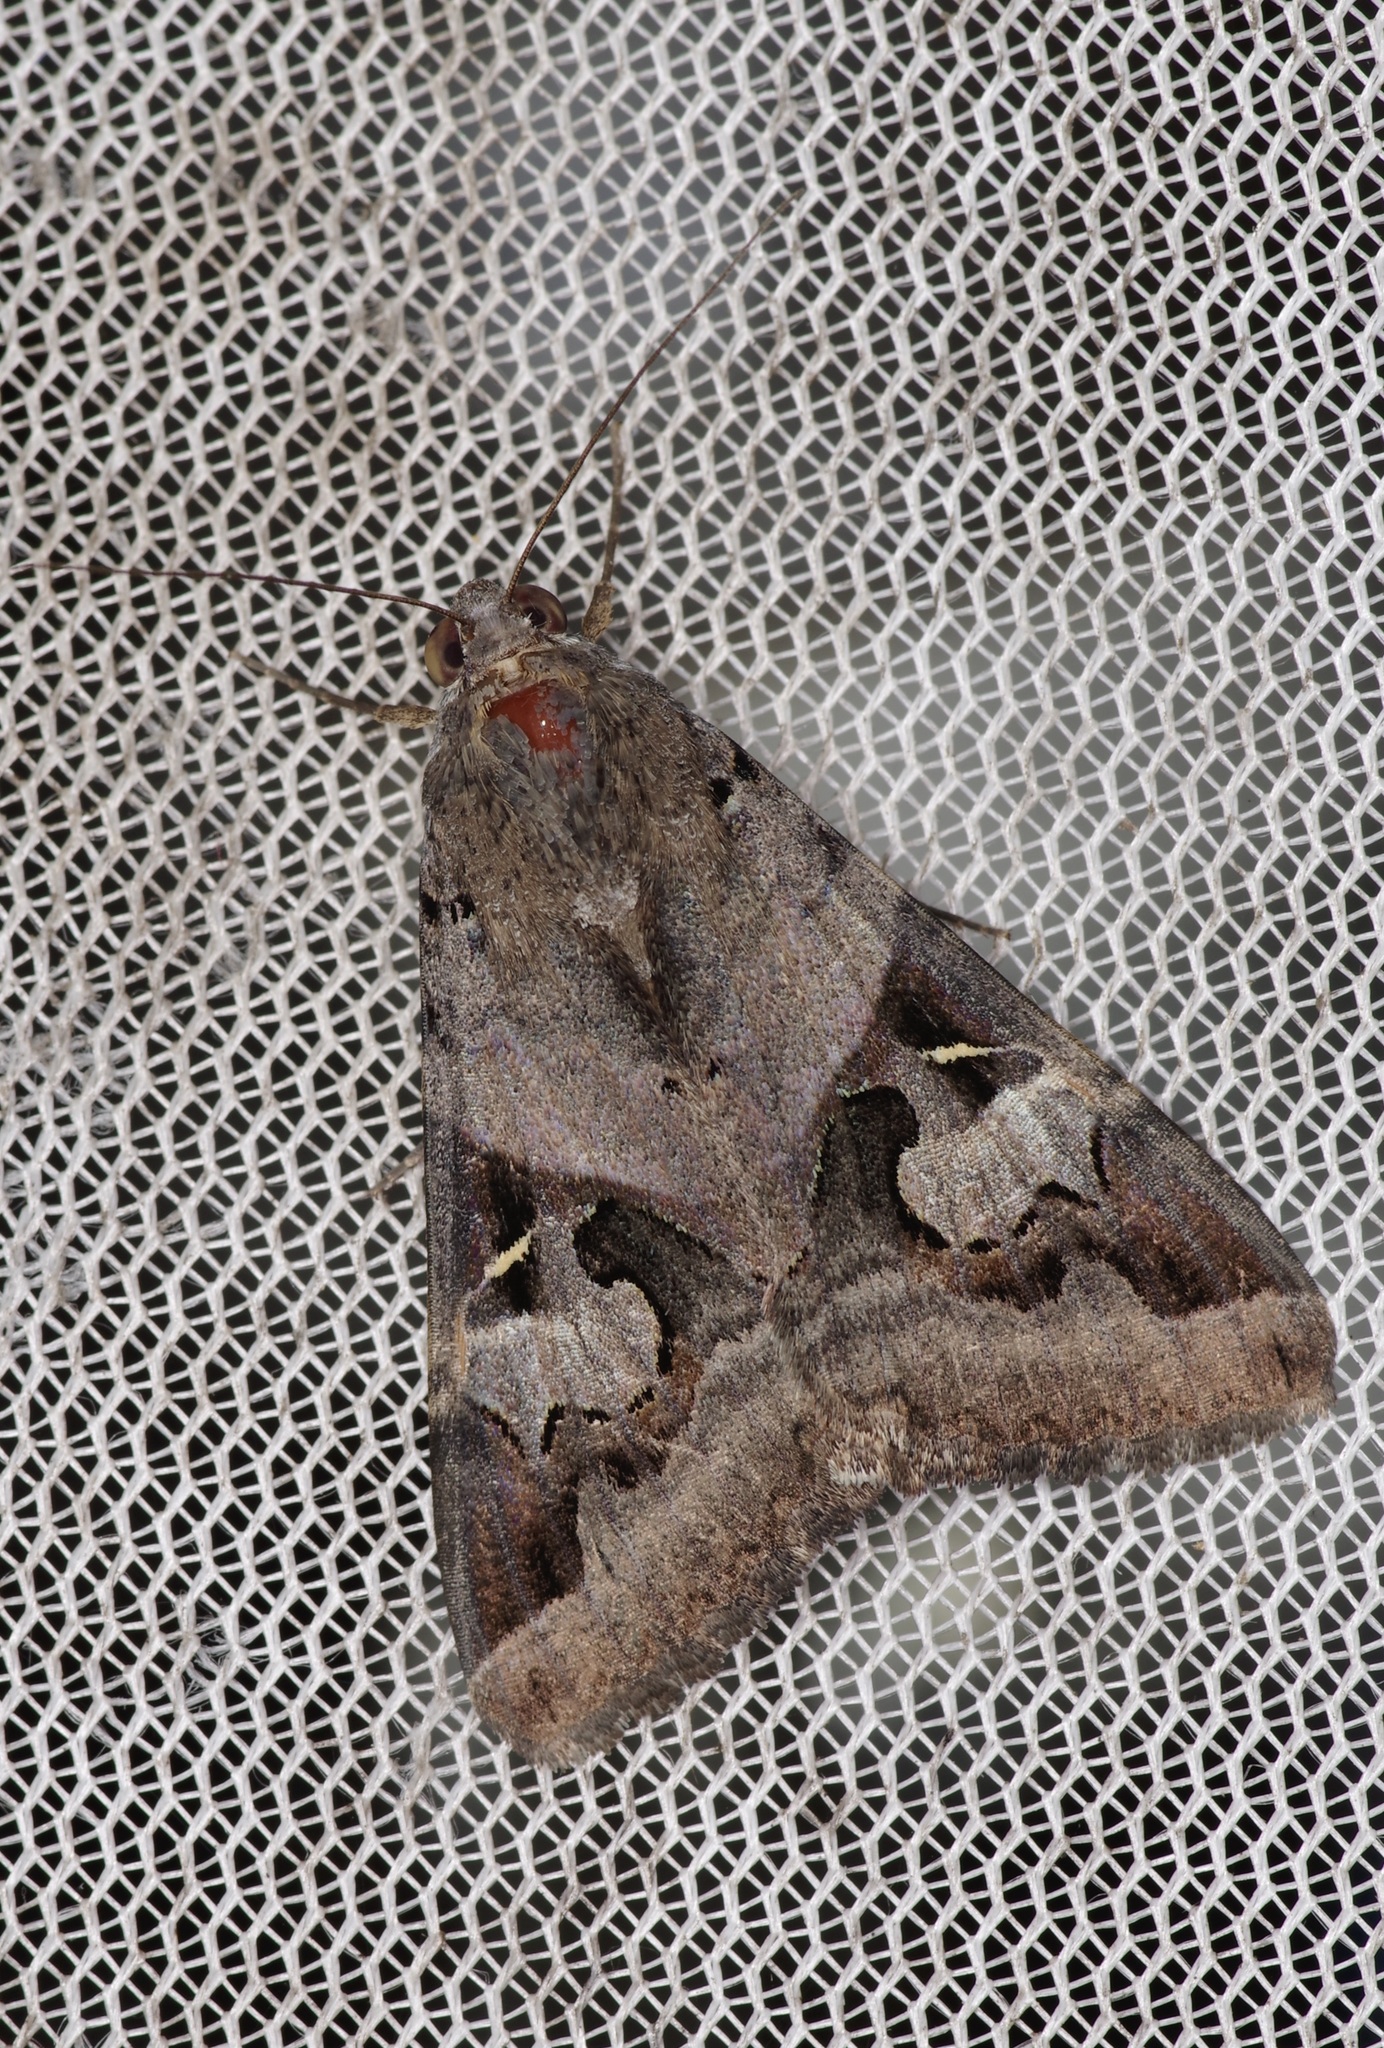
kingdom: Animalia
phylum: Arthropoda
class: Insecta
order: Lepidoptera
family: Erebidae
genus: Melipotis
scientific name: Melipotis indomita
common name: Moth
